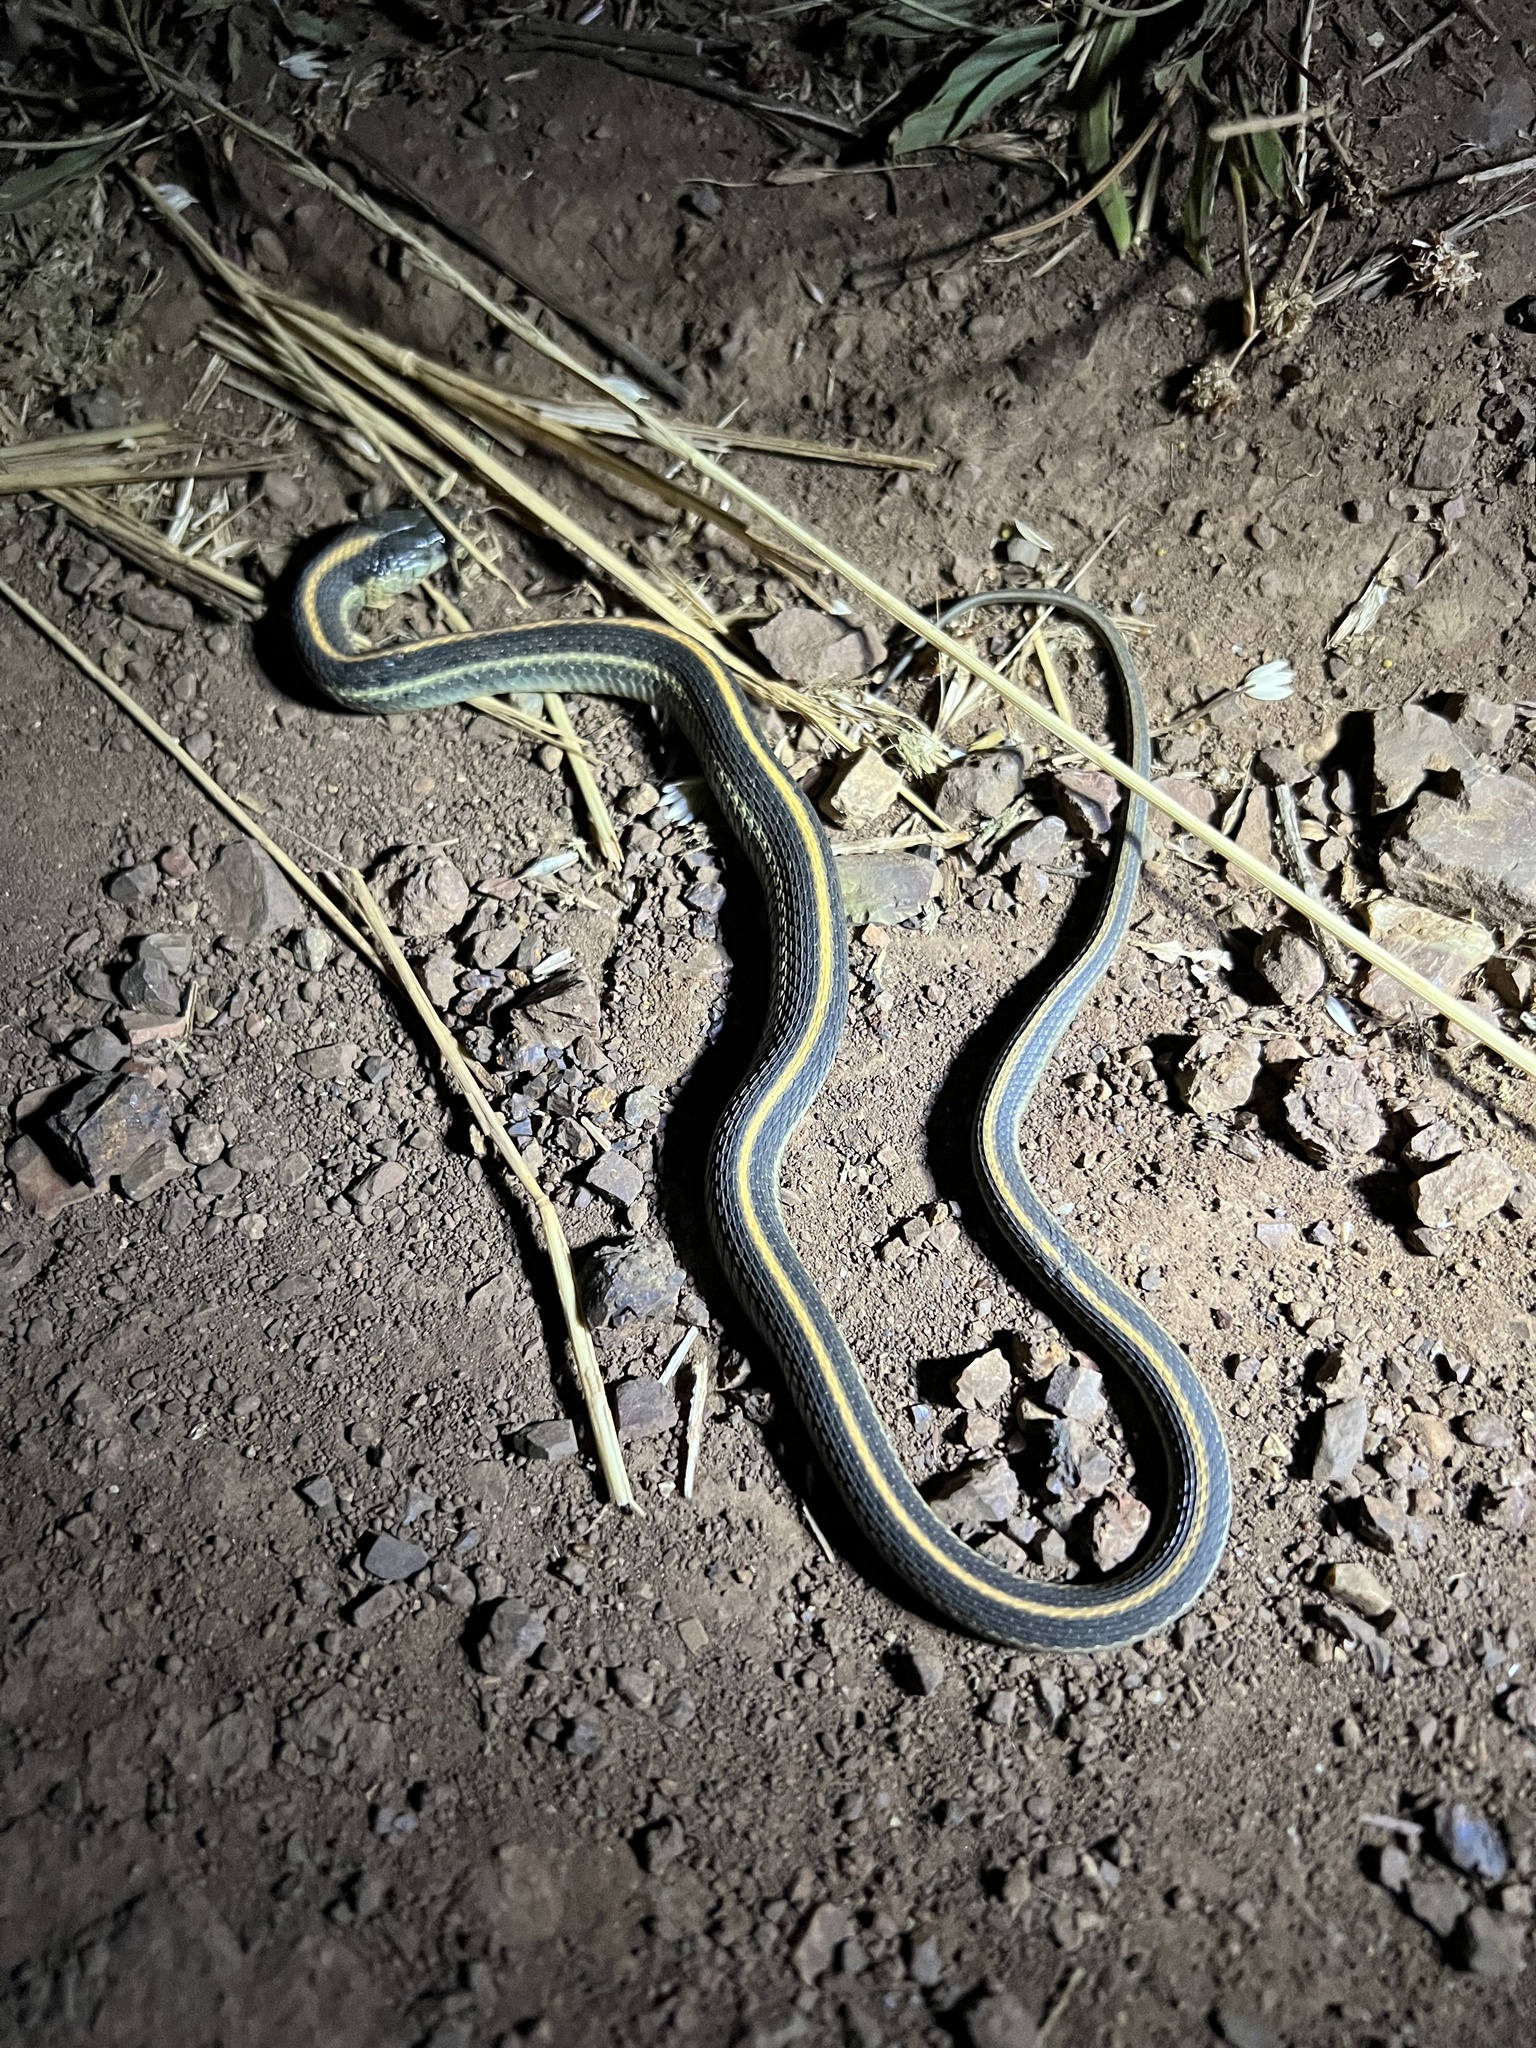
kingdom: Animalia
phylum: Chordata
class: Squamata
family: Colubridae
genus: Thamnophis
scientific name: Thamnophis atratus
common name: Pacific coast aquatic garter snake
